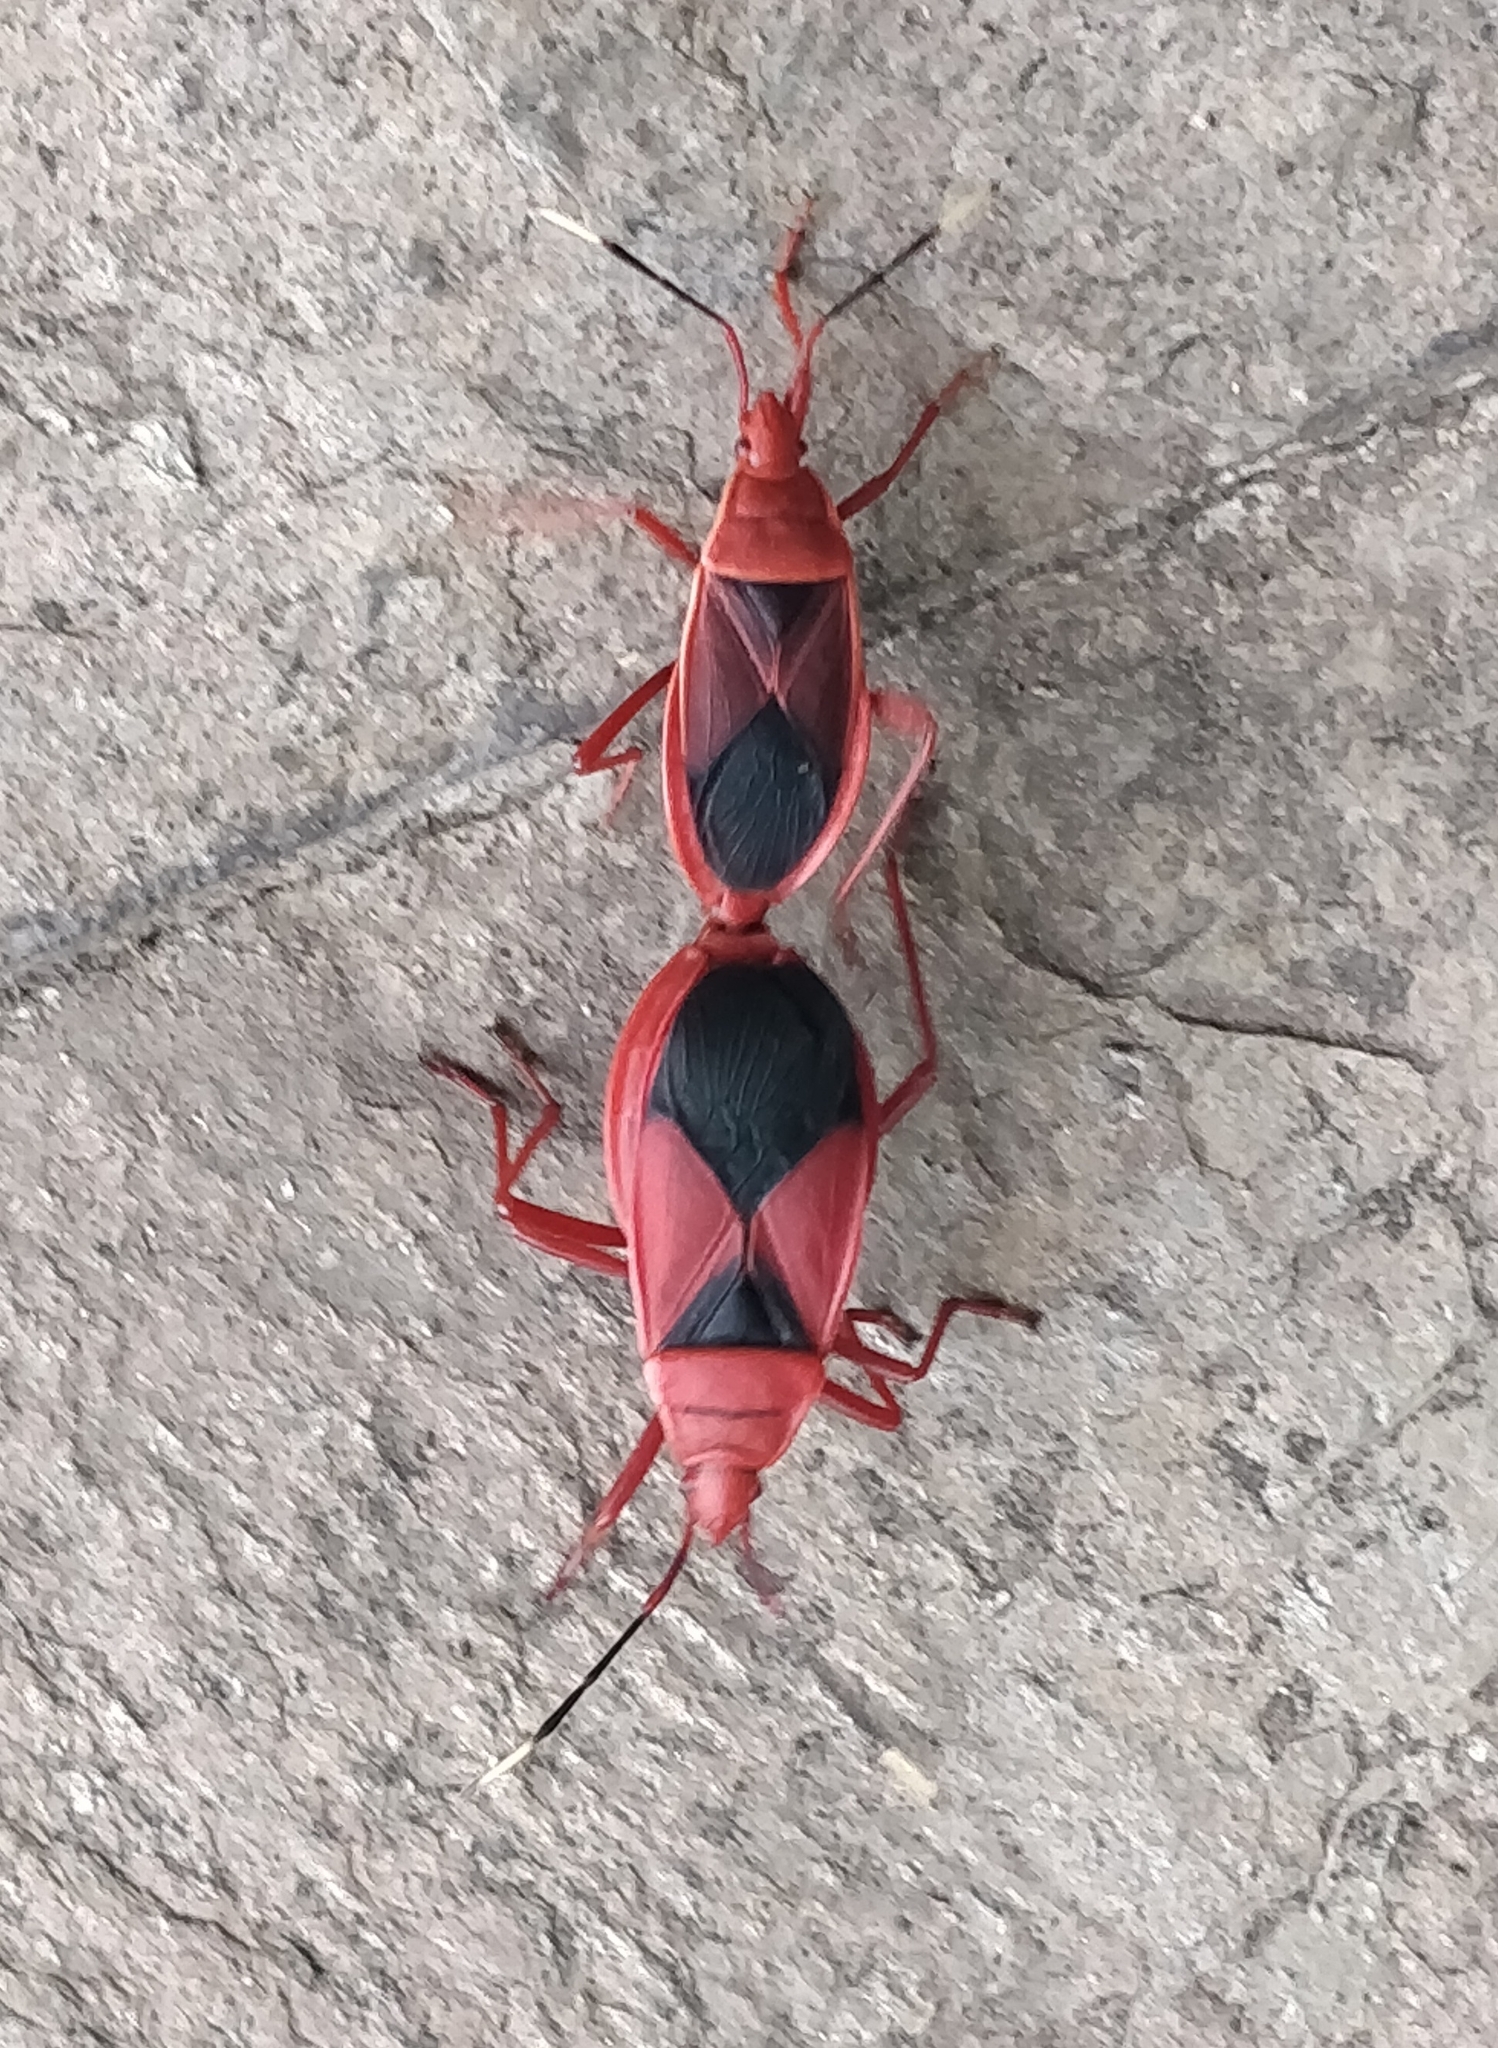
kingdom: Animalia
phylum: Arthropoda
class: Insecta
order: Hemiptera
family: Pyrrhocoridae
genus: Probergrothius
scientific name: Probergrothius
